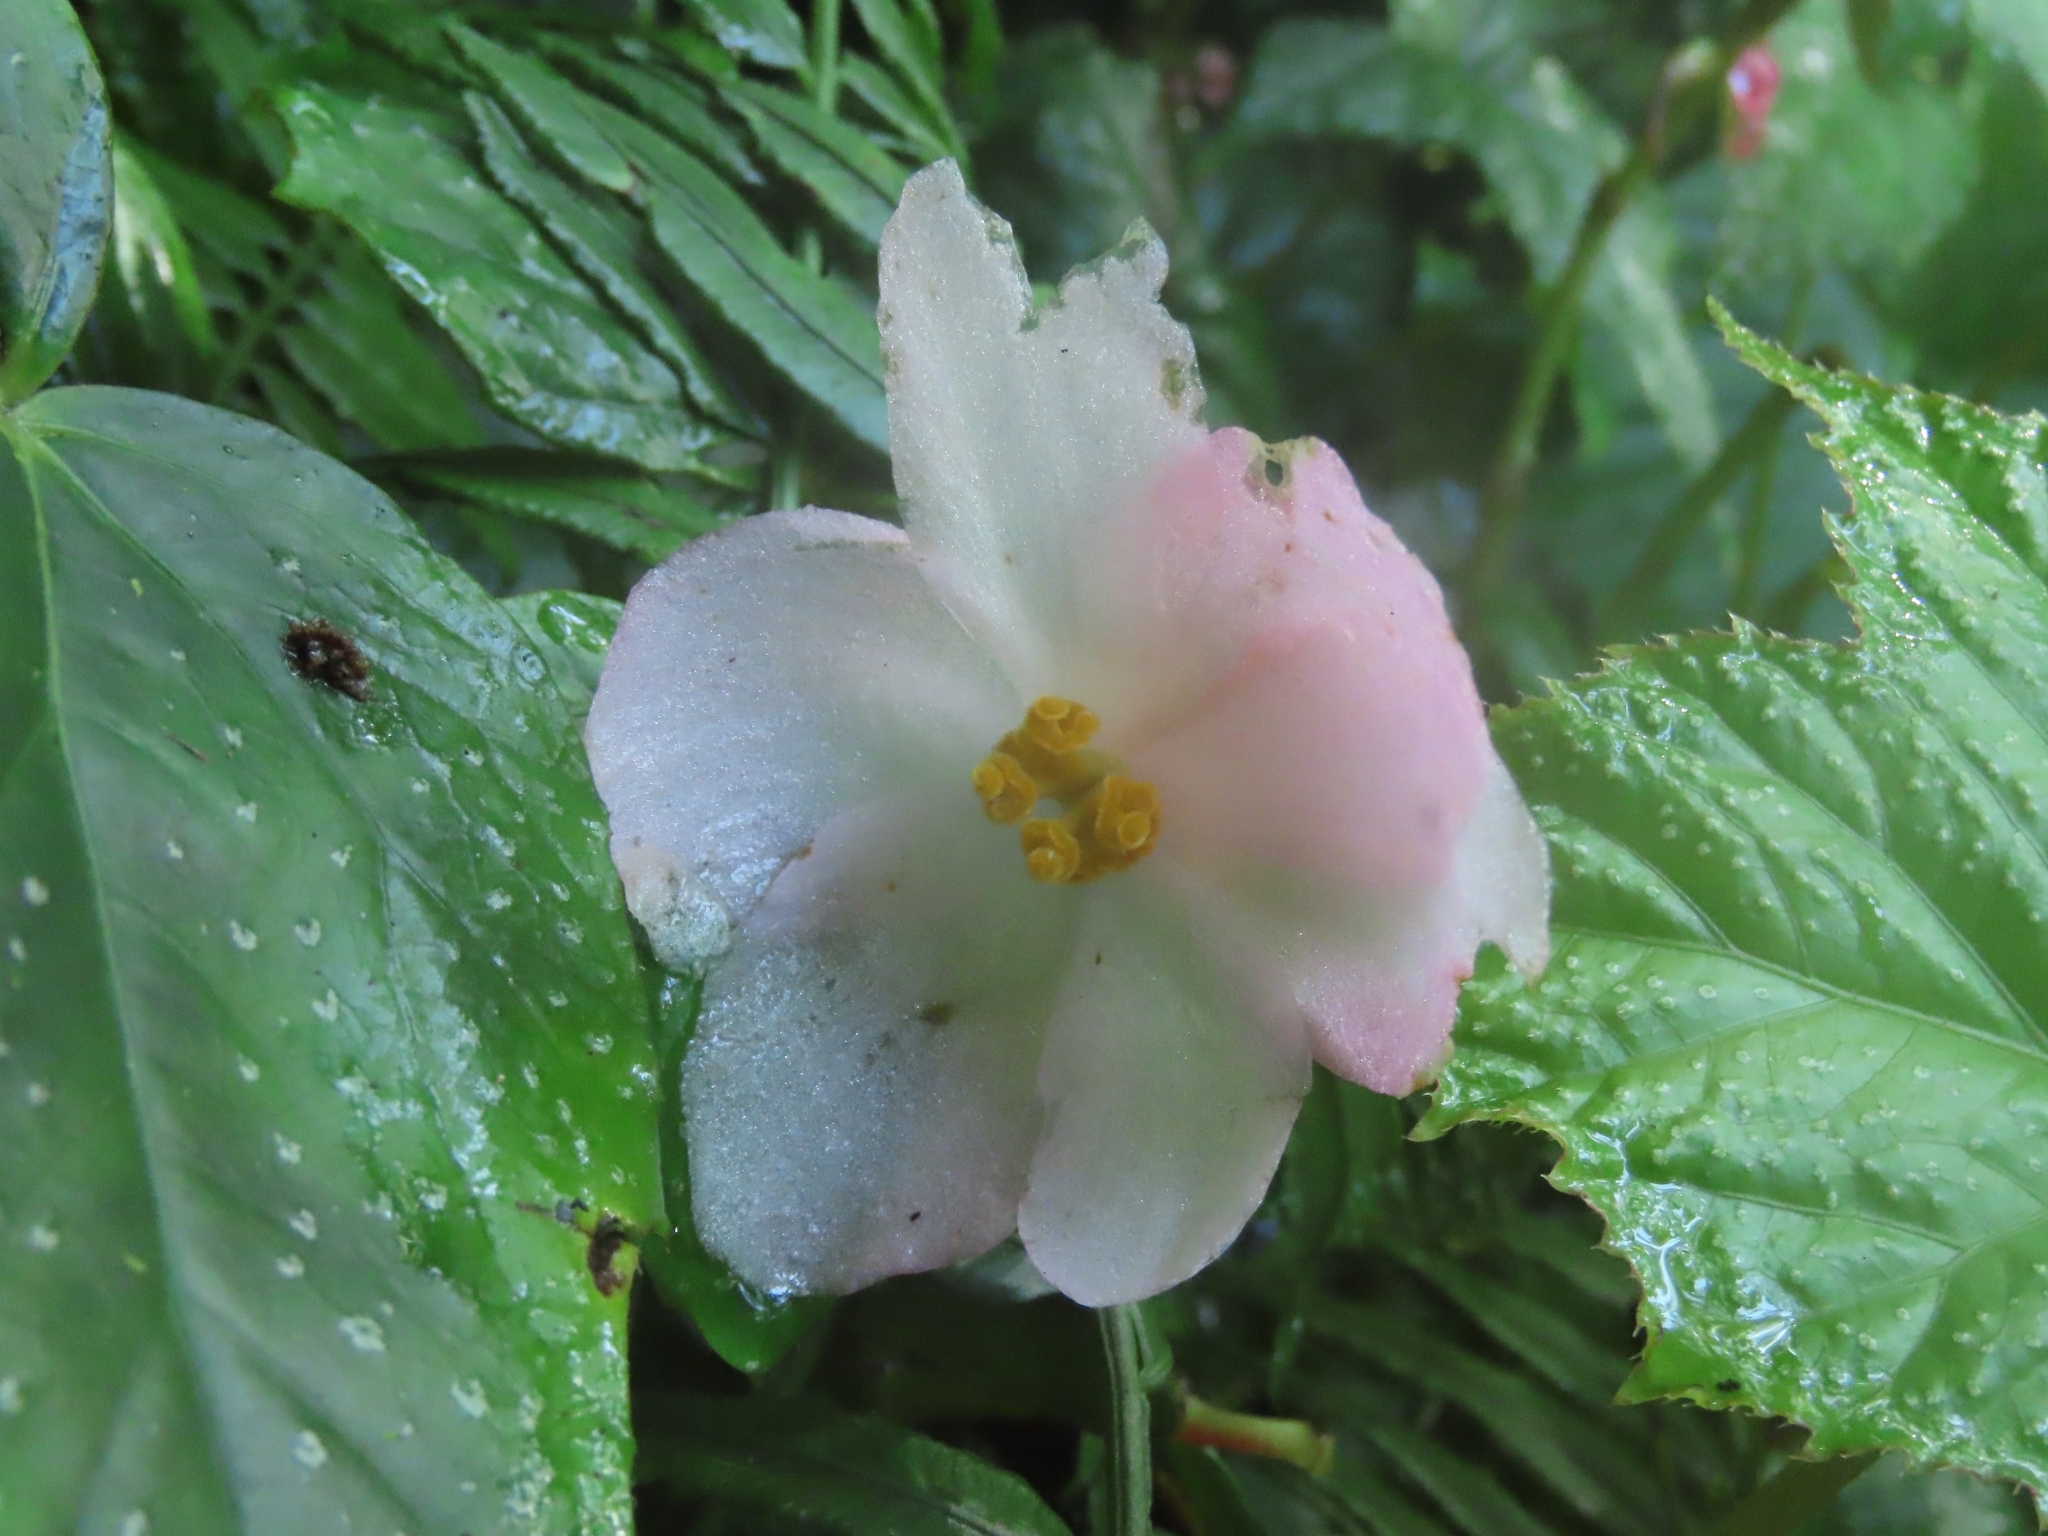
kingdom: Plantae
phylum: Tracheophyta
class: Magnoliopsida
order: Cucurbitales
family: Begoniaceae
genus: Begonia
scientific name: Begonia formosana
